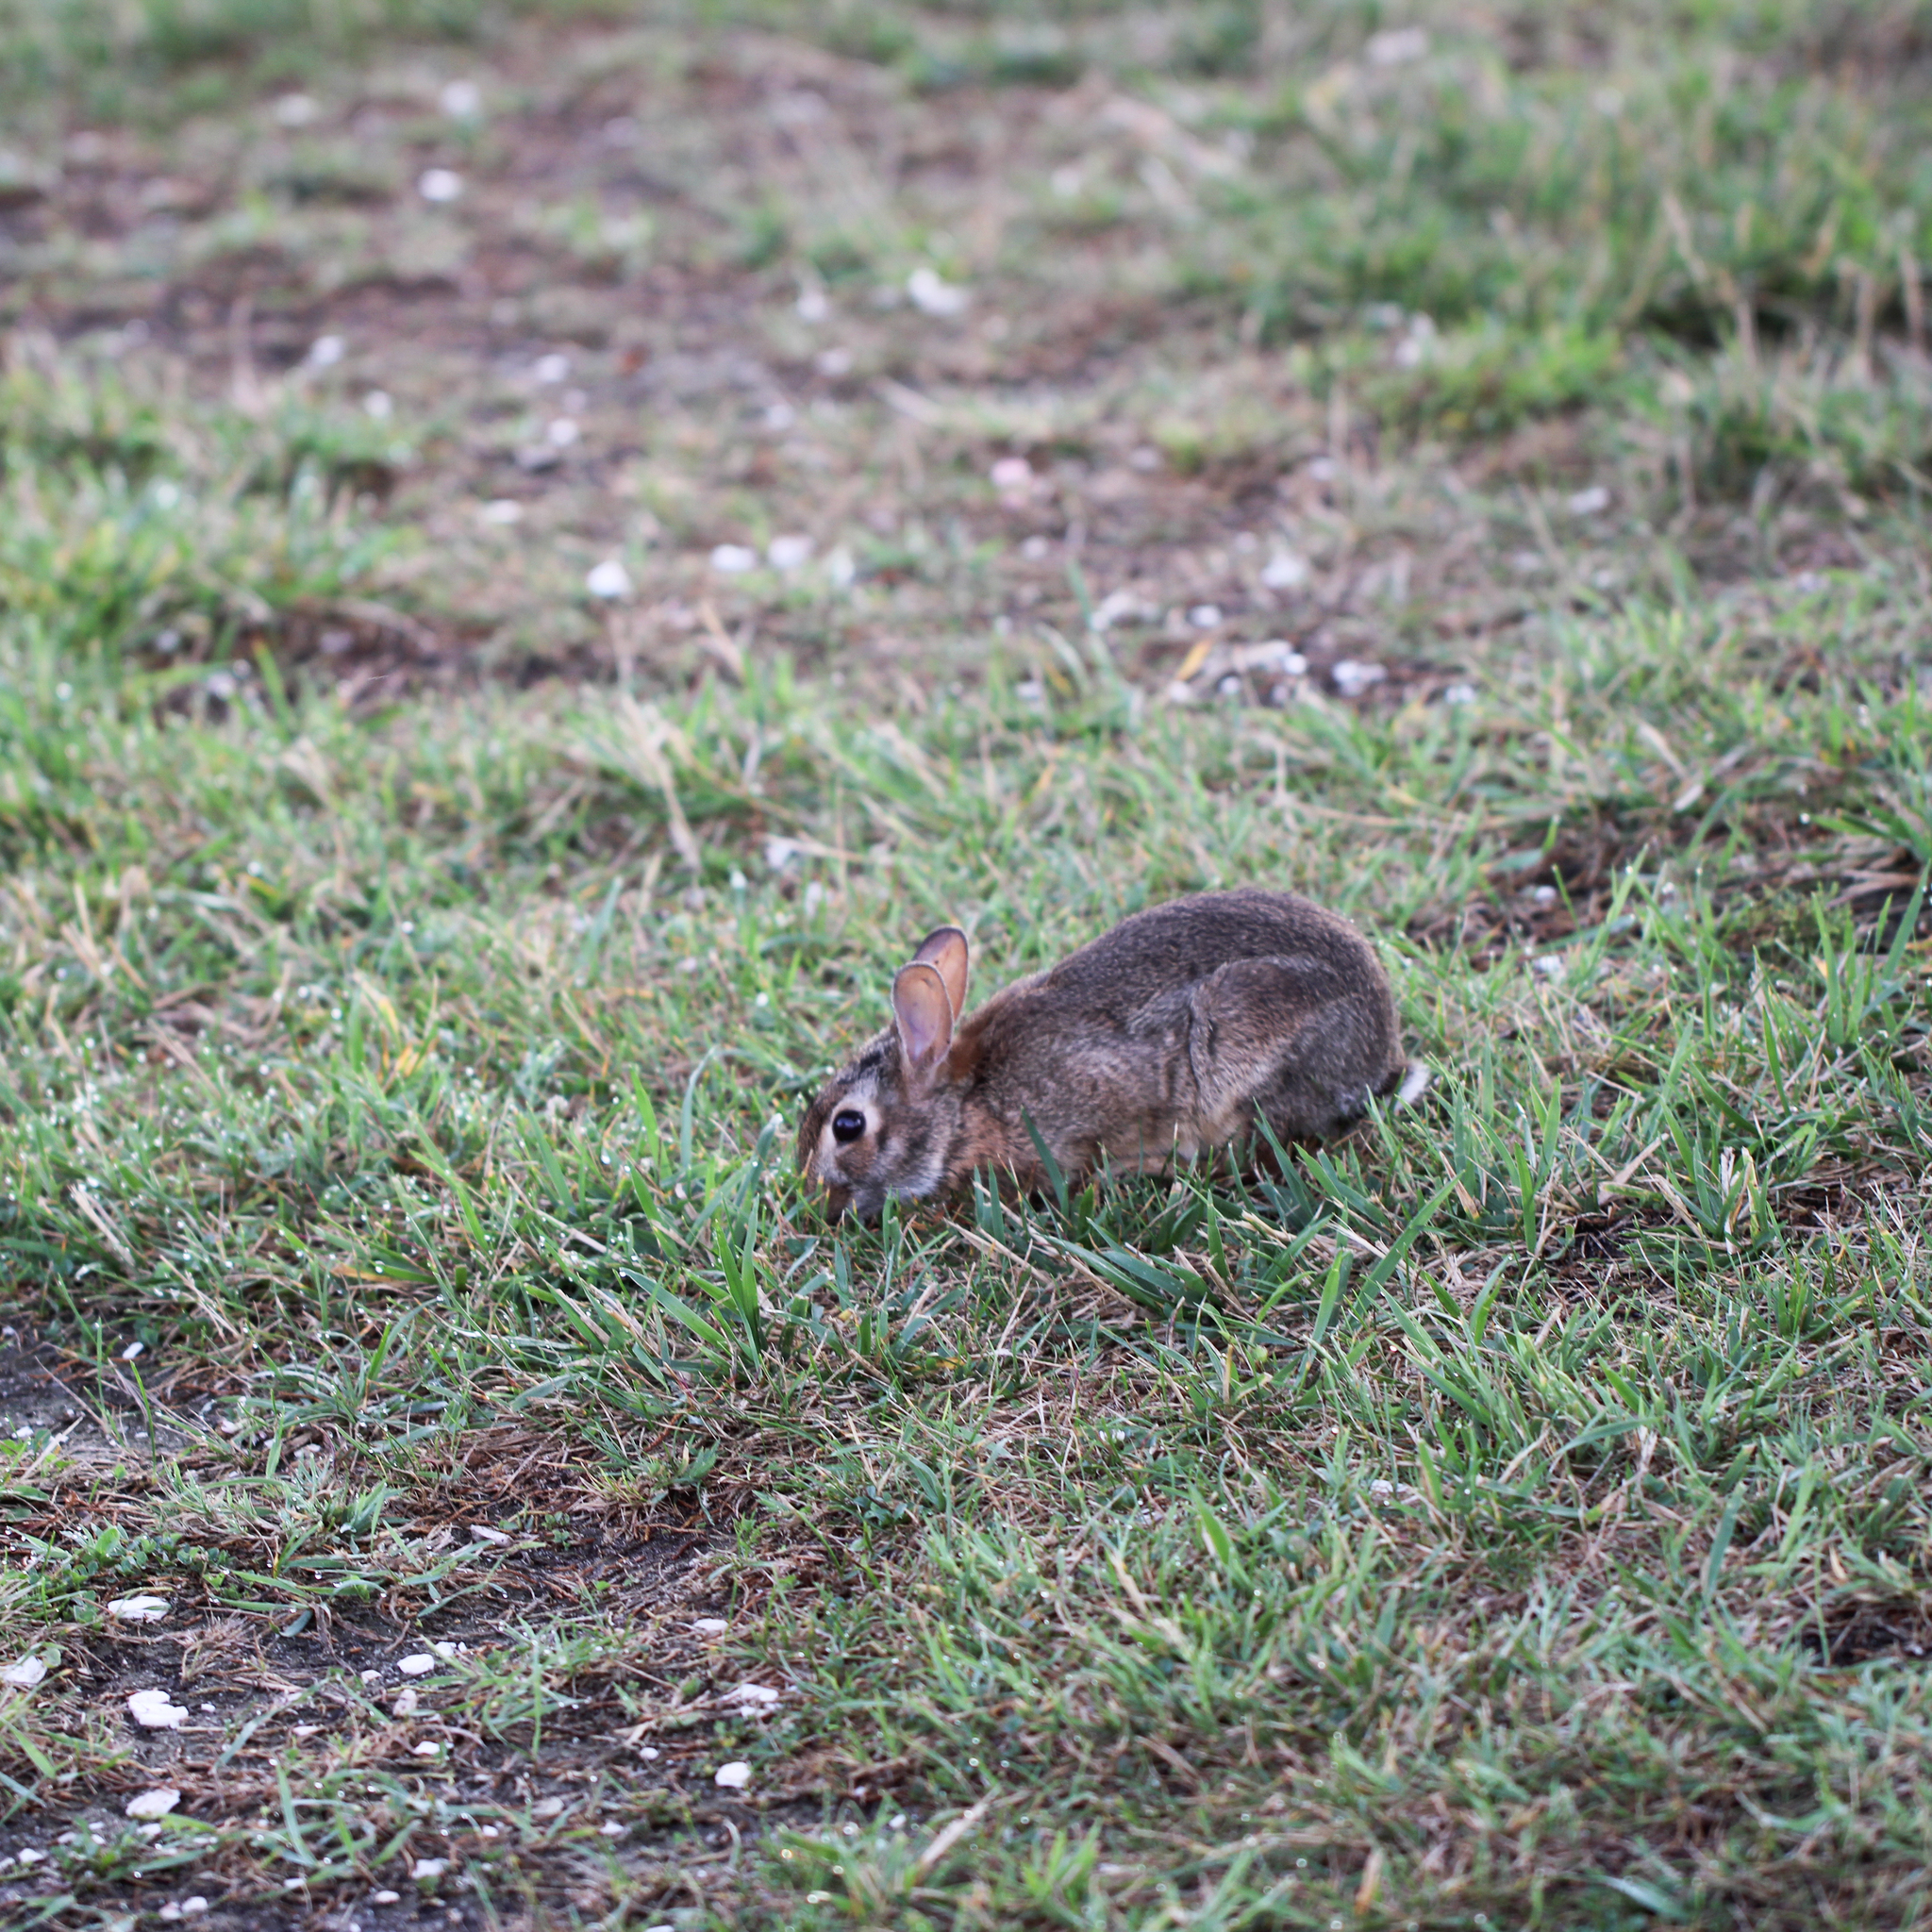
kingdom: Animalia
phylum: Chordata
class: Mammalia
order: Lagomorpha
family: Leporidae
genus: Sylvilagus
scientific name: Sylvilagus floridanus
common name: Eastern cottontail
